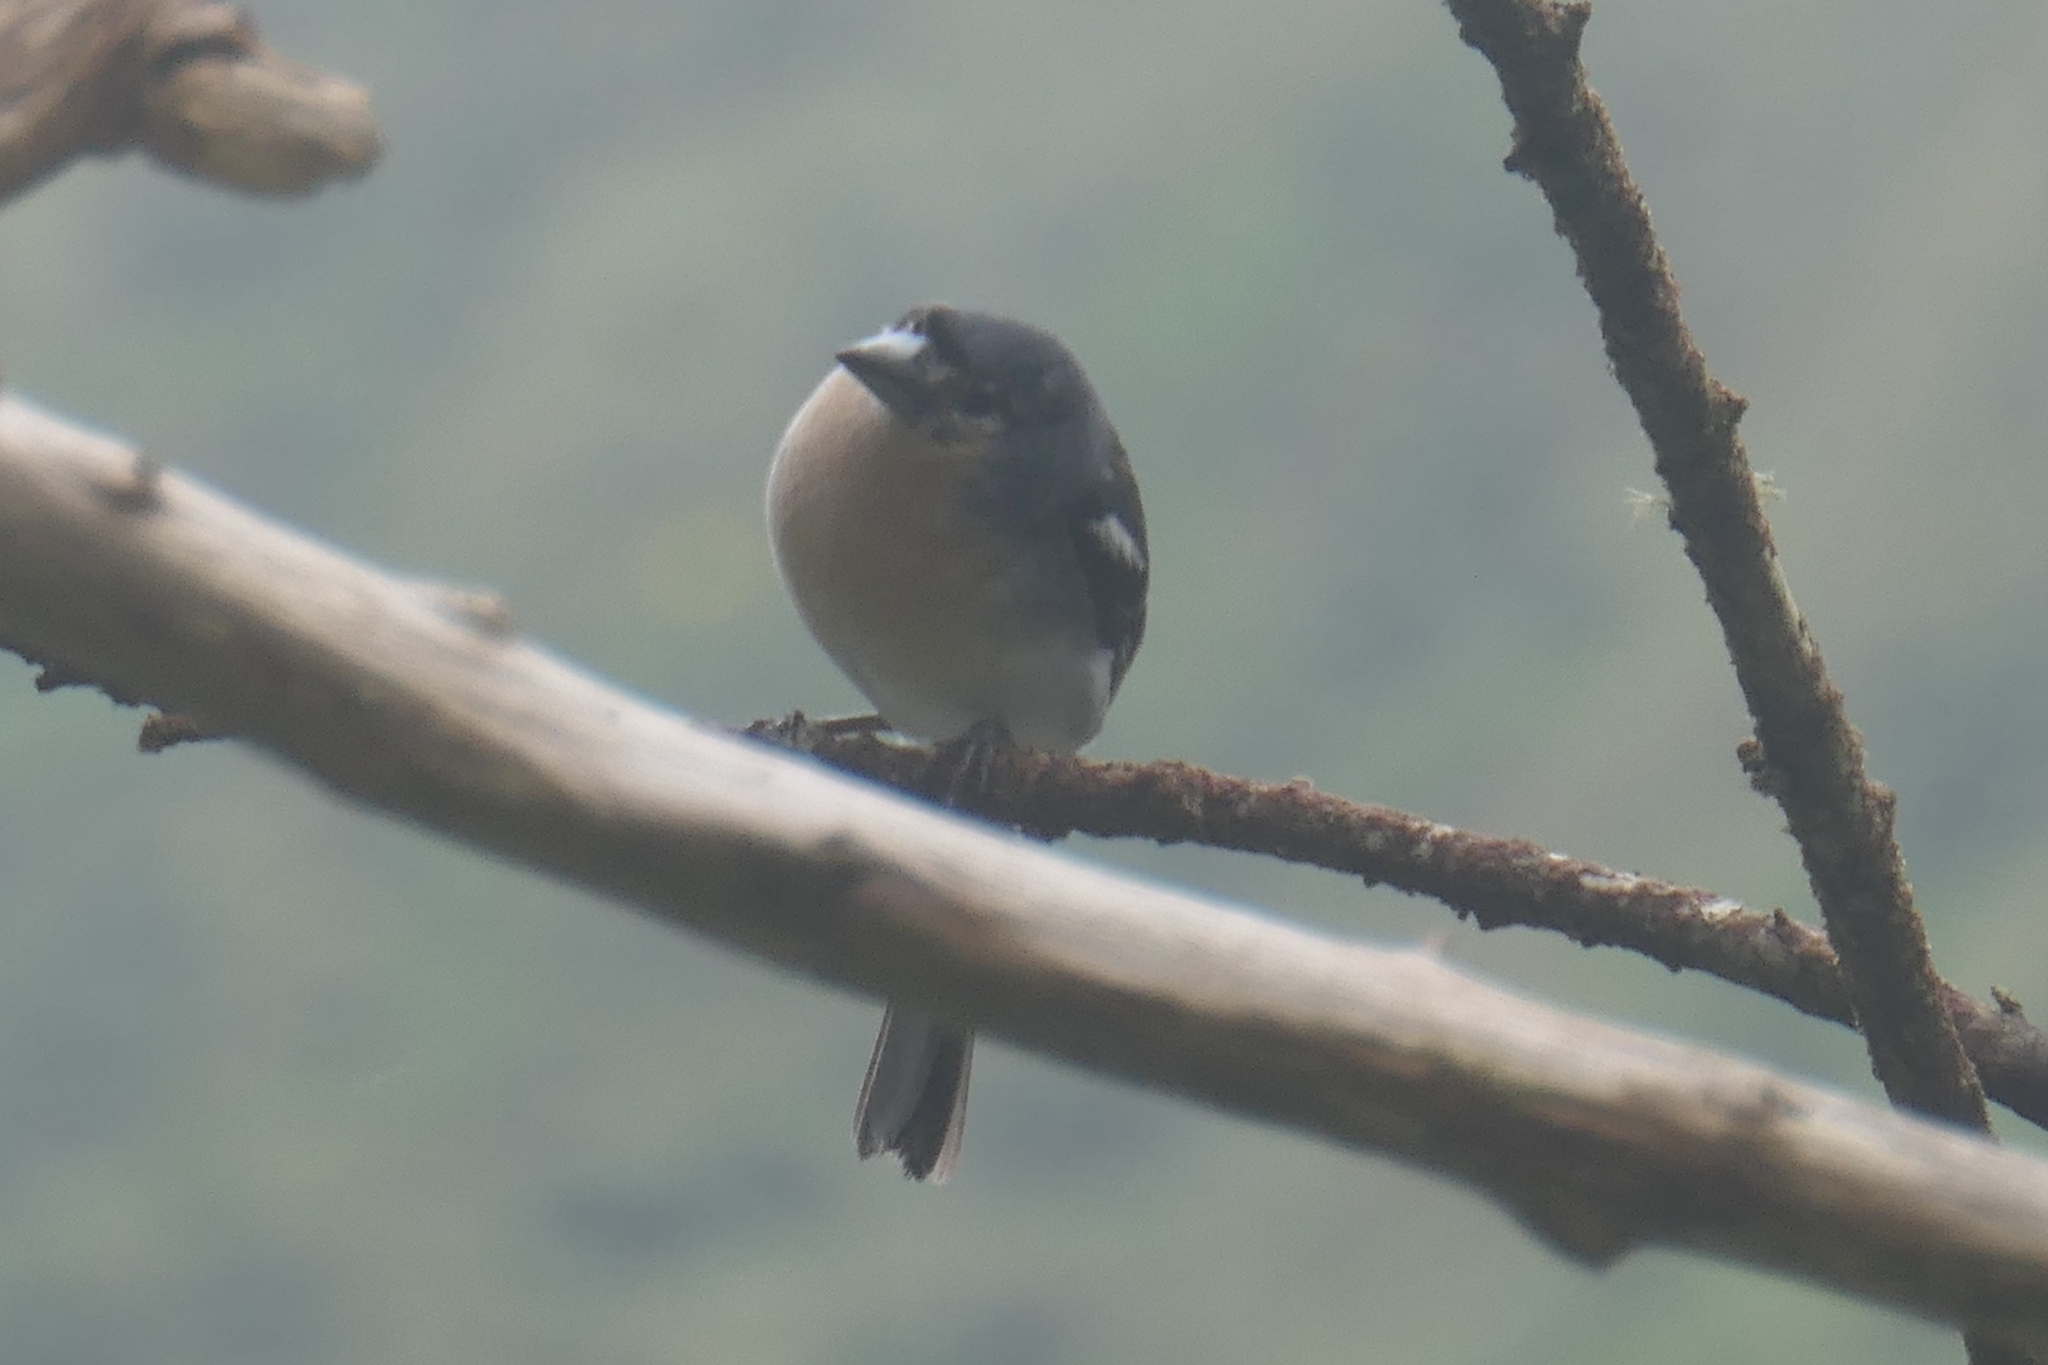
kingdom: Animalia
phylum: Chordata
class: Aves
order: Passeriformes
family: Fringillidae
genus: Fringilla
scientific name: Fringilla moreletti
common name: Azores chaffinch
